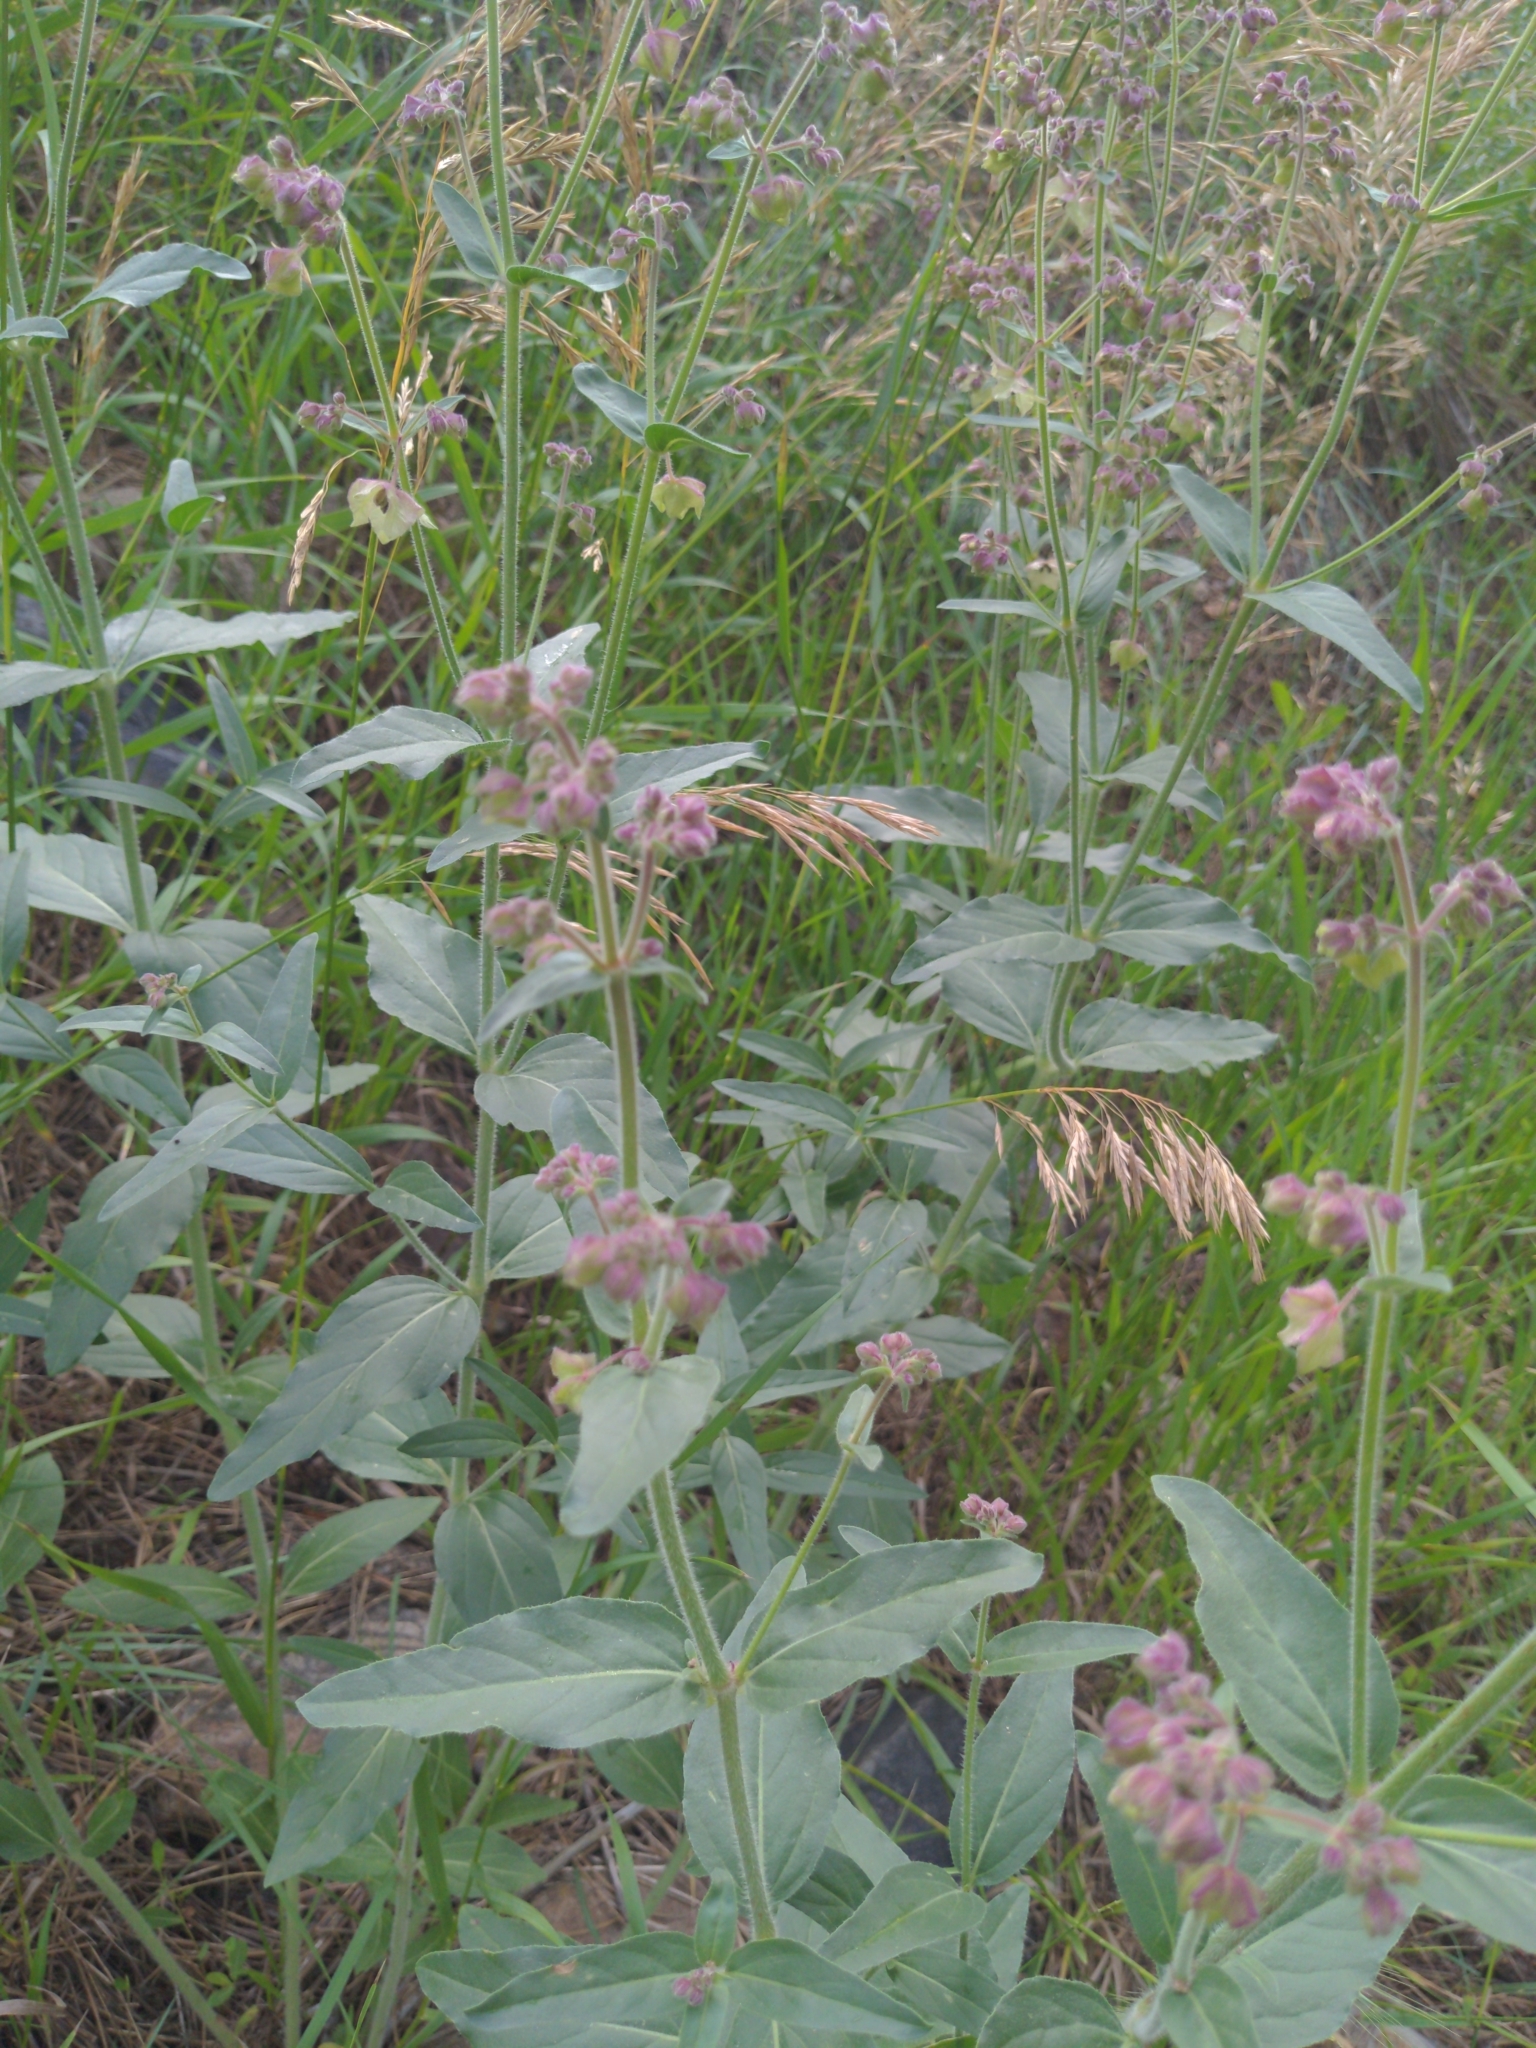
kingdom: Plantae
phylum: Tracheophyta
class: Magnoliopsida
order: Caryophyllales
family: Nyctaginaceae
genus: Mirabilis
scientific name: Mirabilis nyctaginea
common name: Umbrella wort
